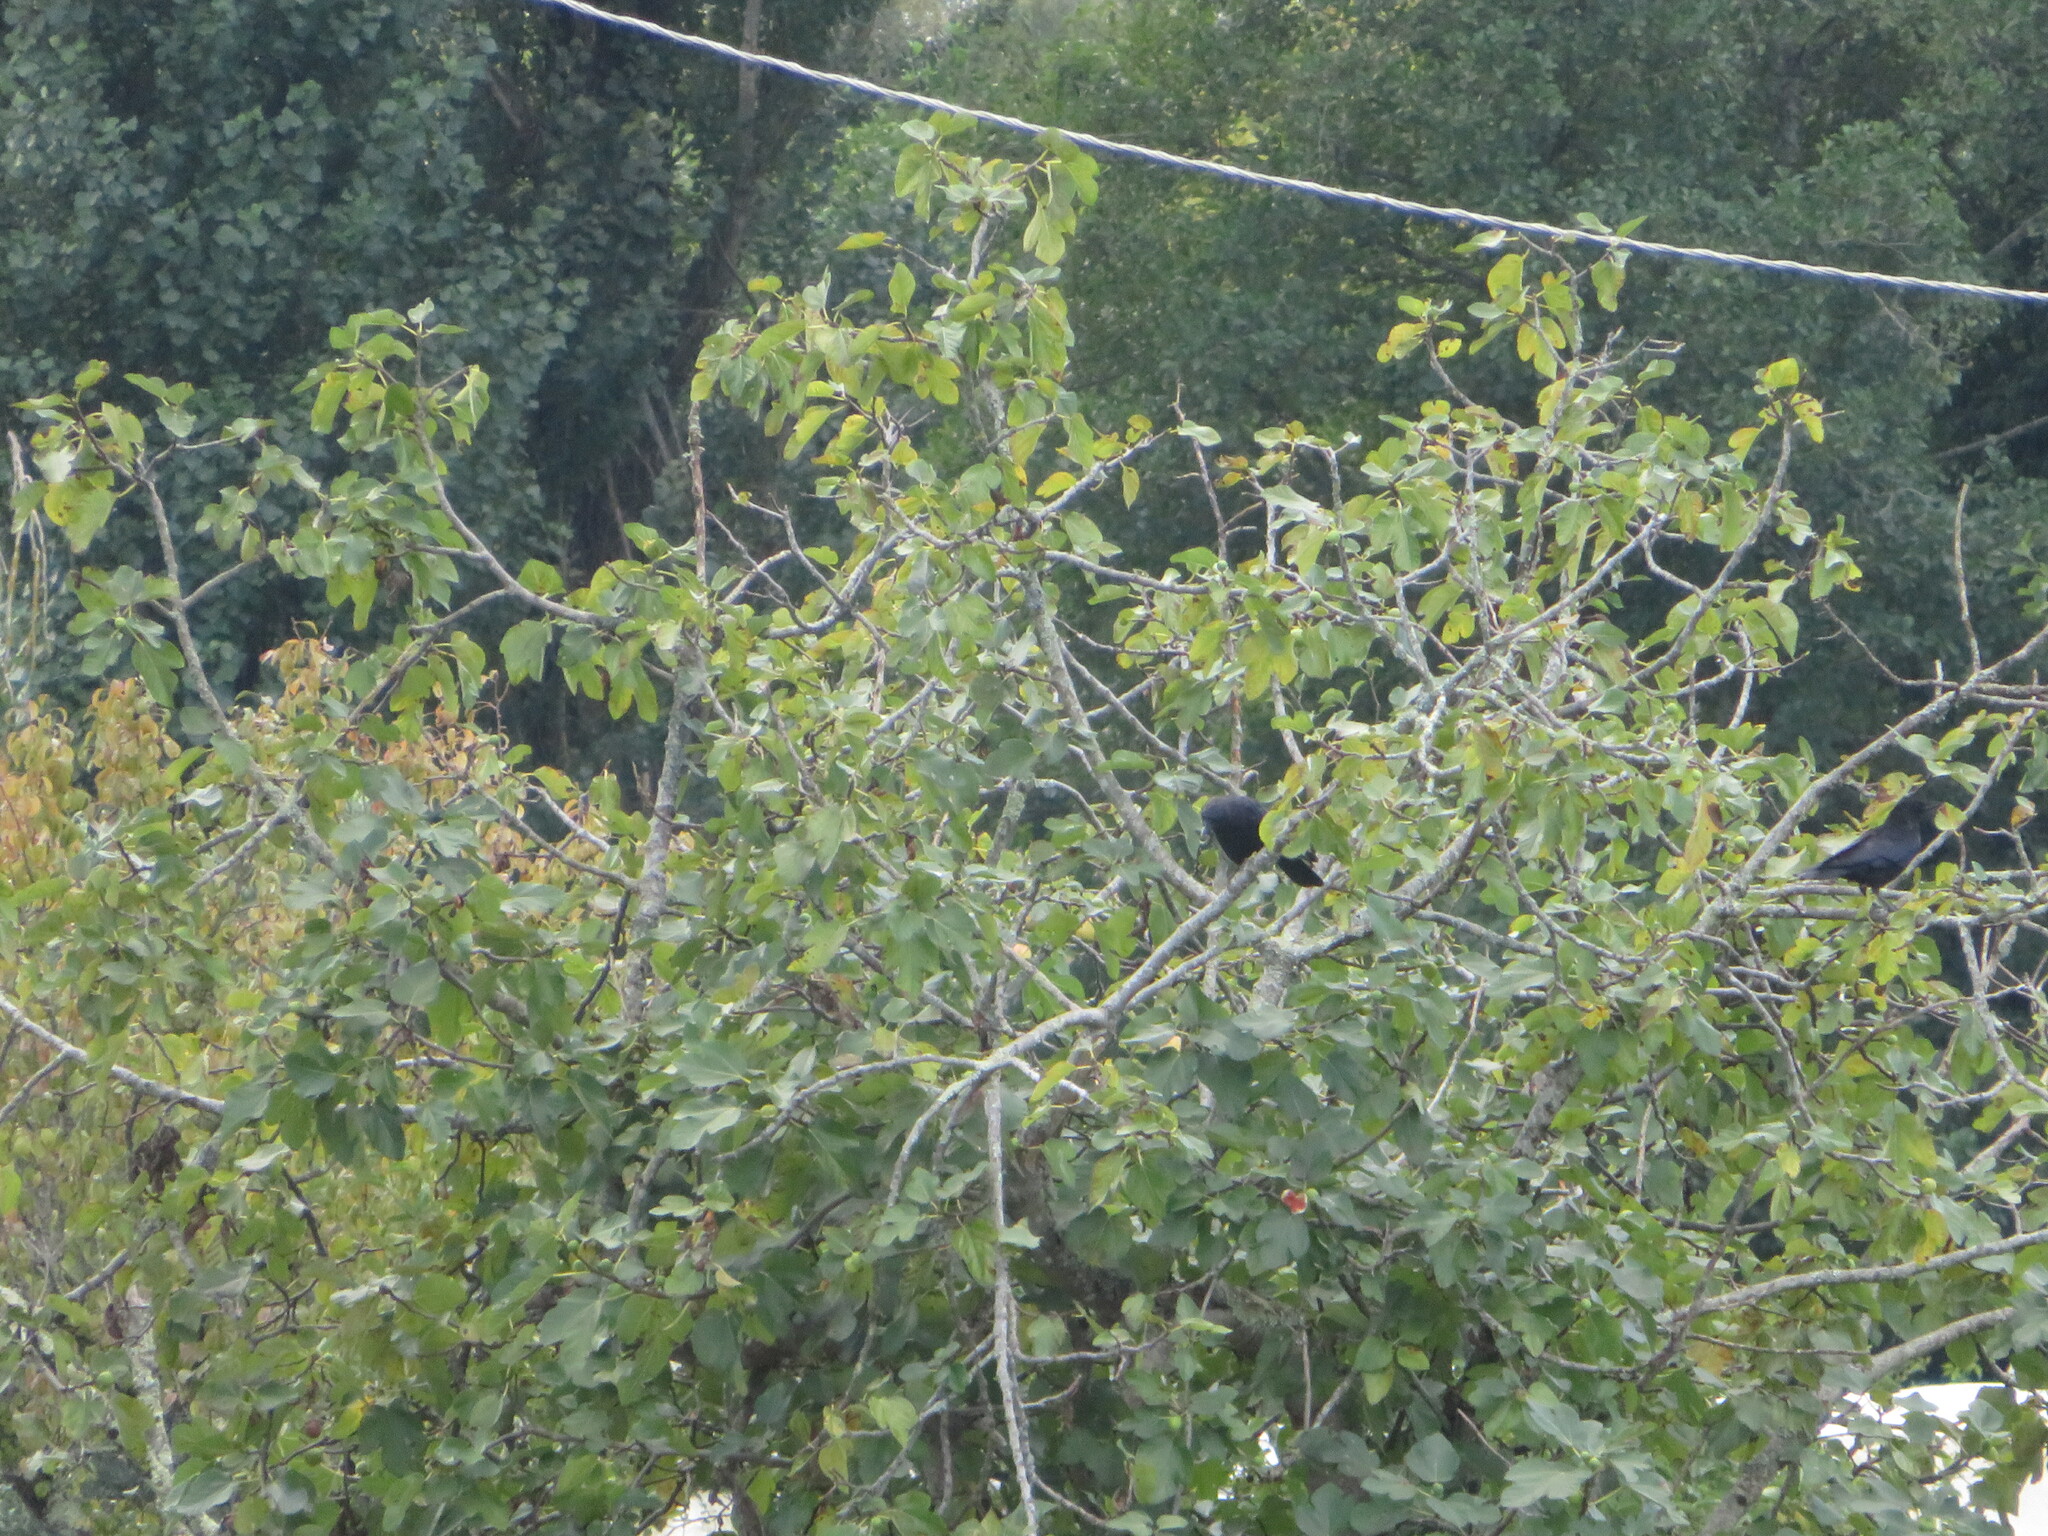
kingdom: Animalia
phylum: Chordata
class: Aves
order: Passeriformes
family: Corvidae
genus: Corvus
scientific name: Corvus corone
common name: Carrion crow
